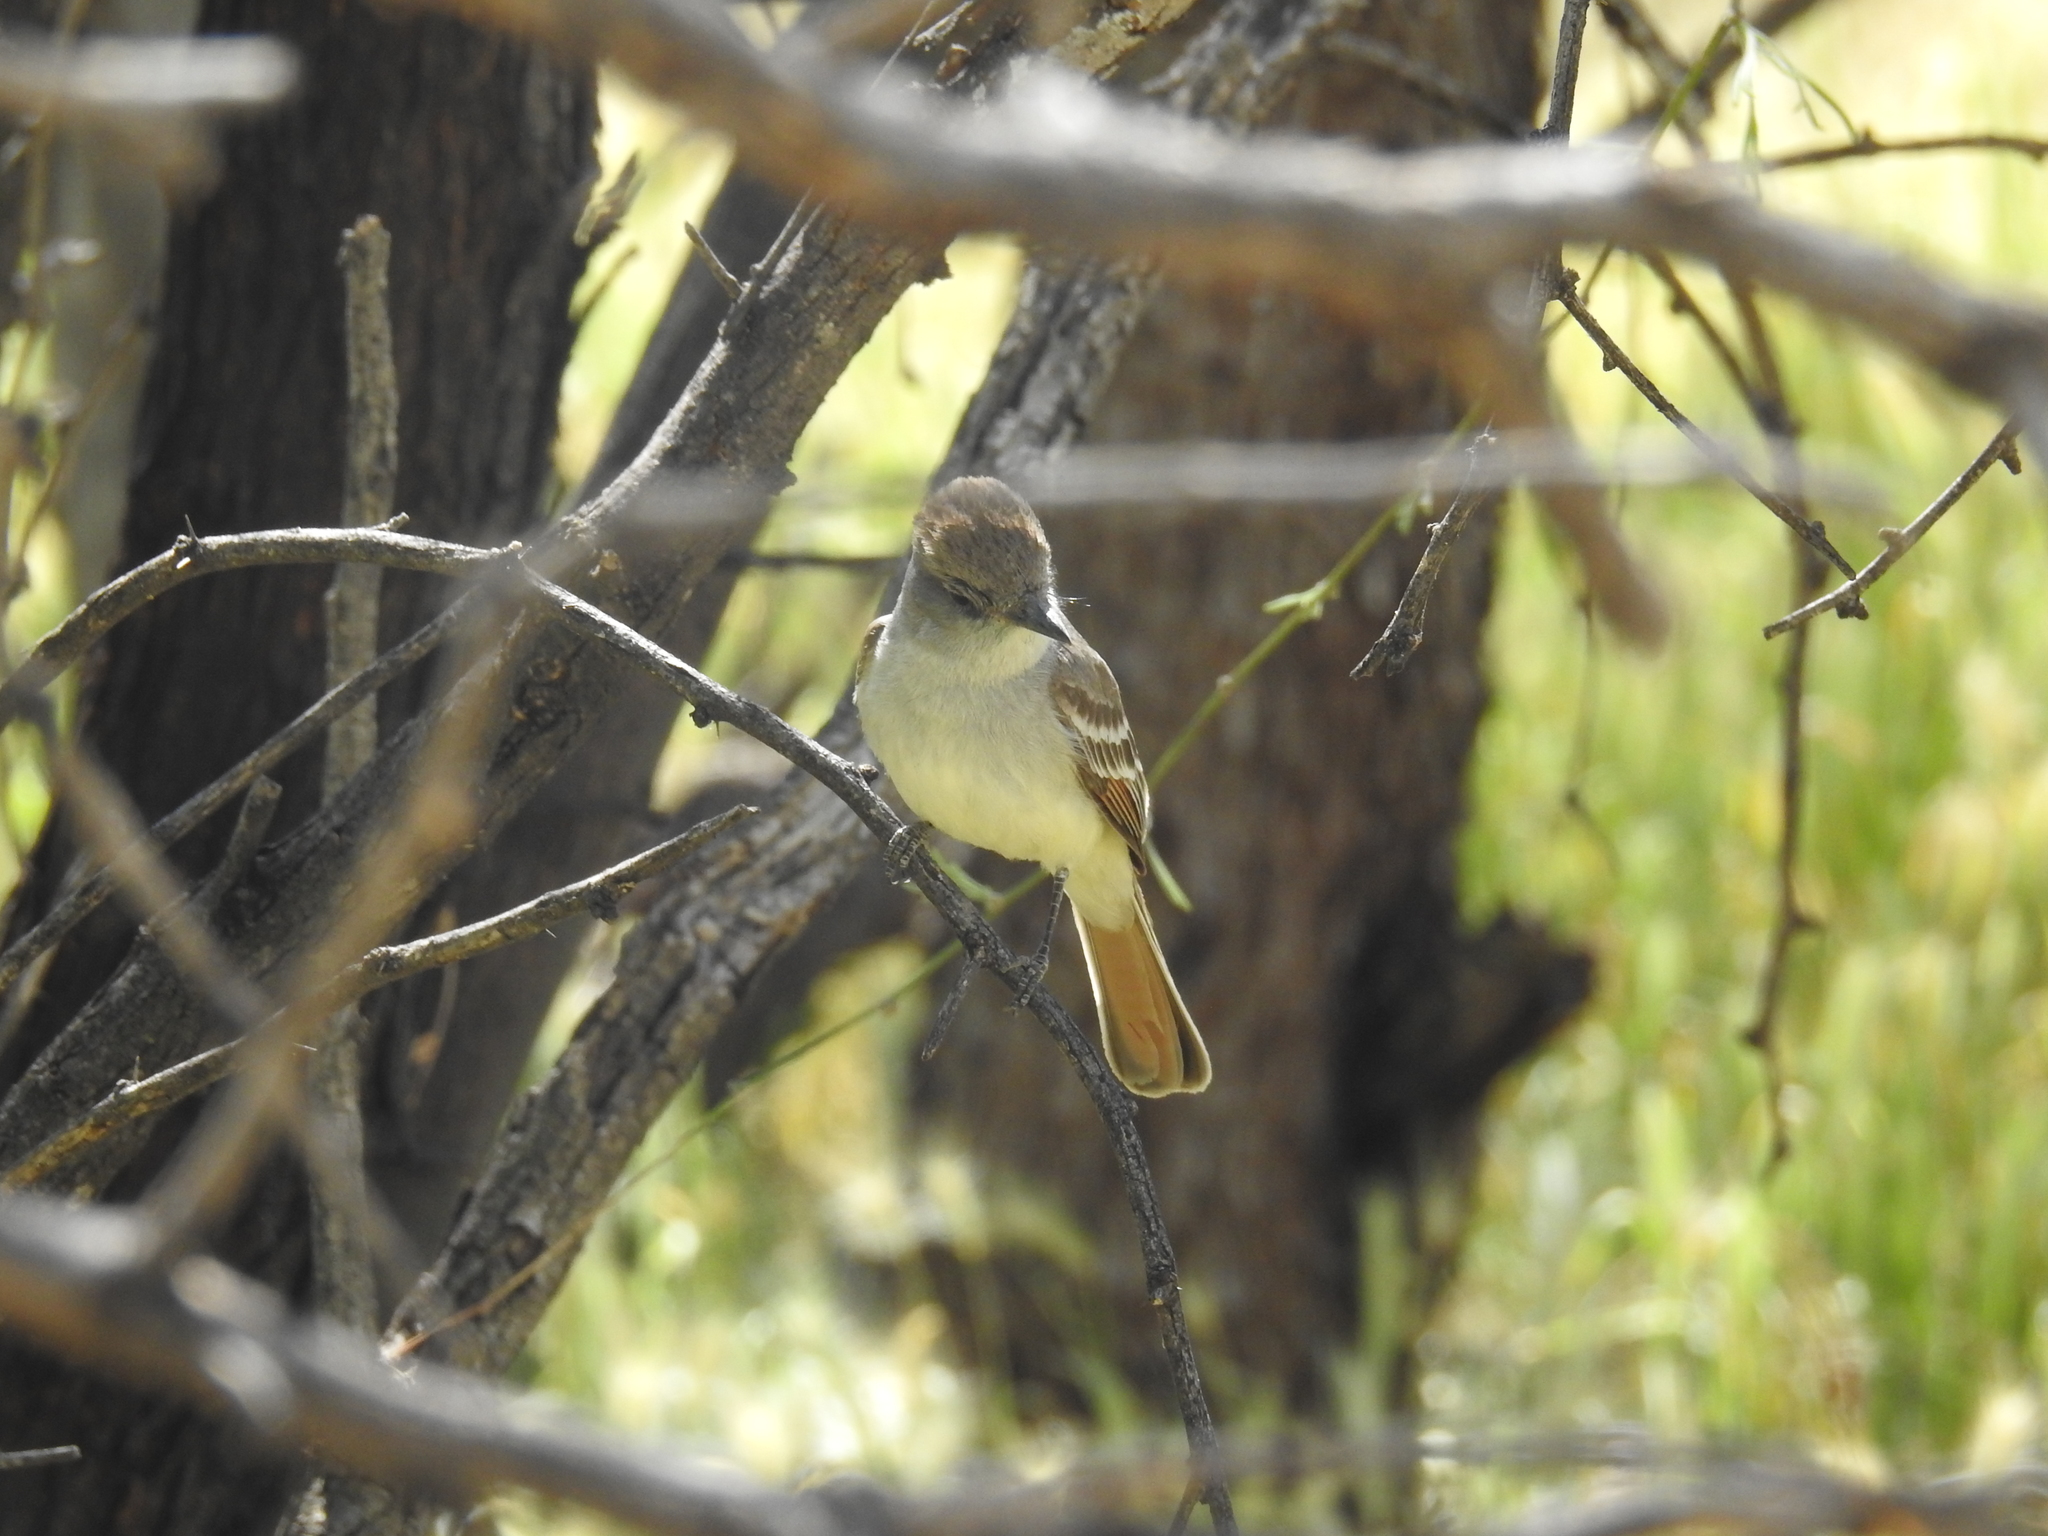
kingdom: Animalia
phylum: Chordata
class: Aves
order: Passeriformes
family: Tyrannidae
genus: Myiarchus
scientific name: Myiarchus cinerascens
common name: Ash-throated flycatcher
